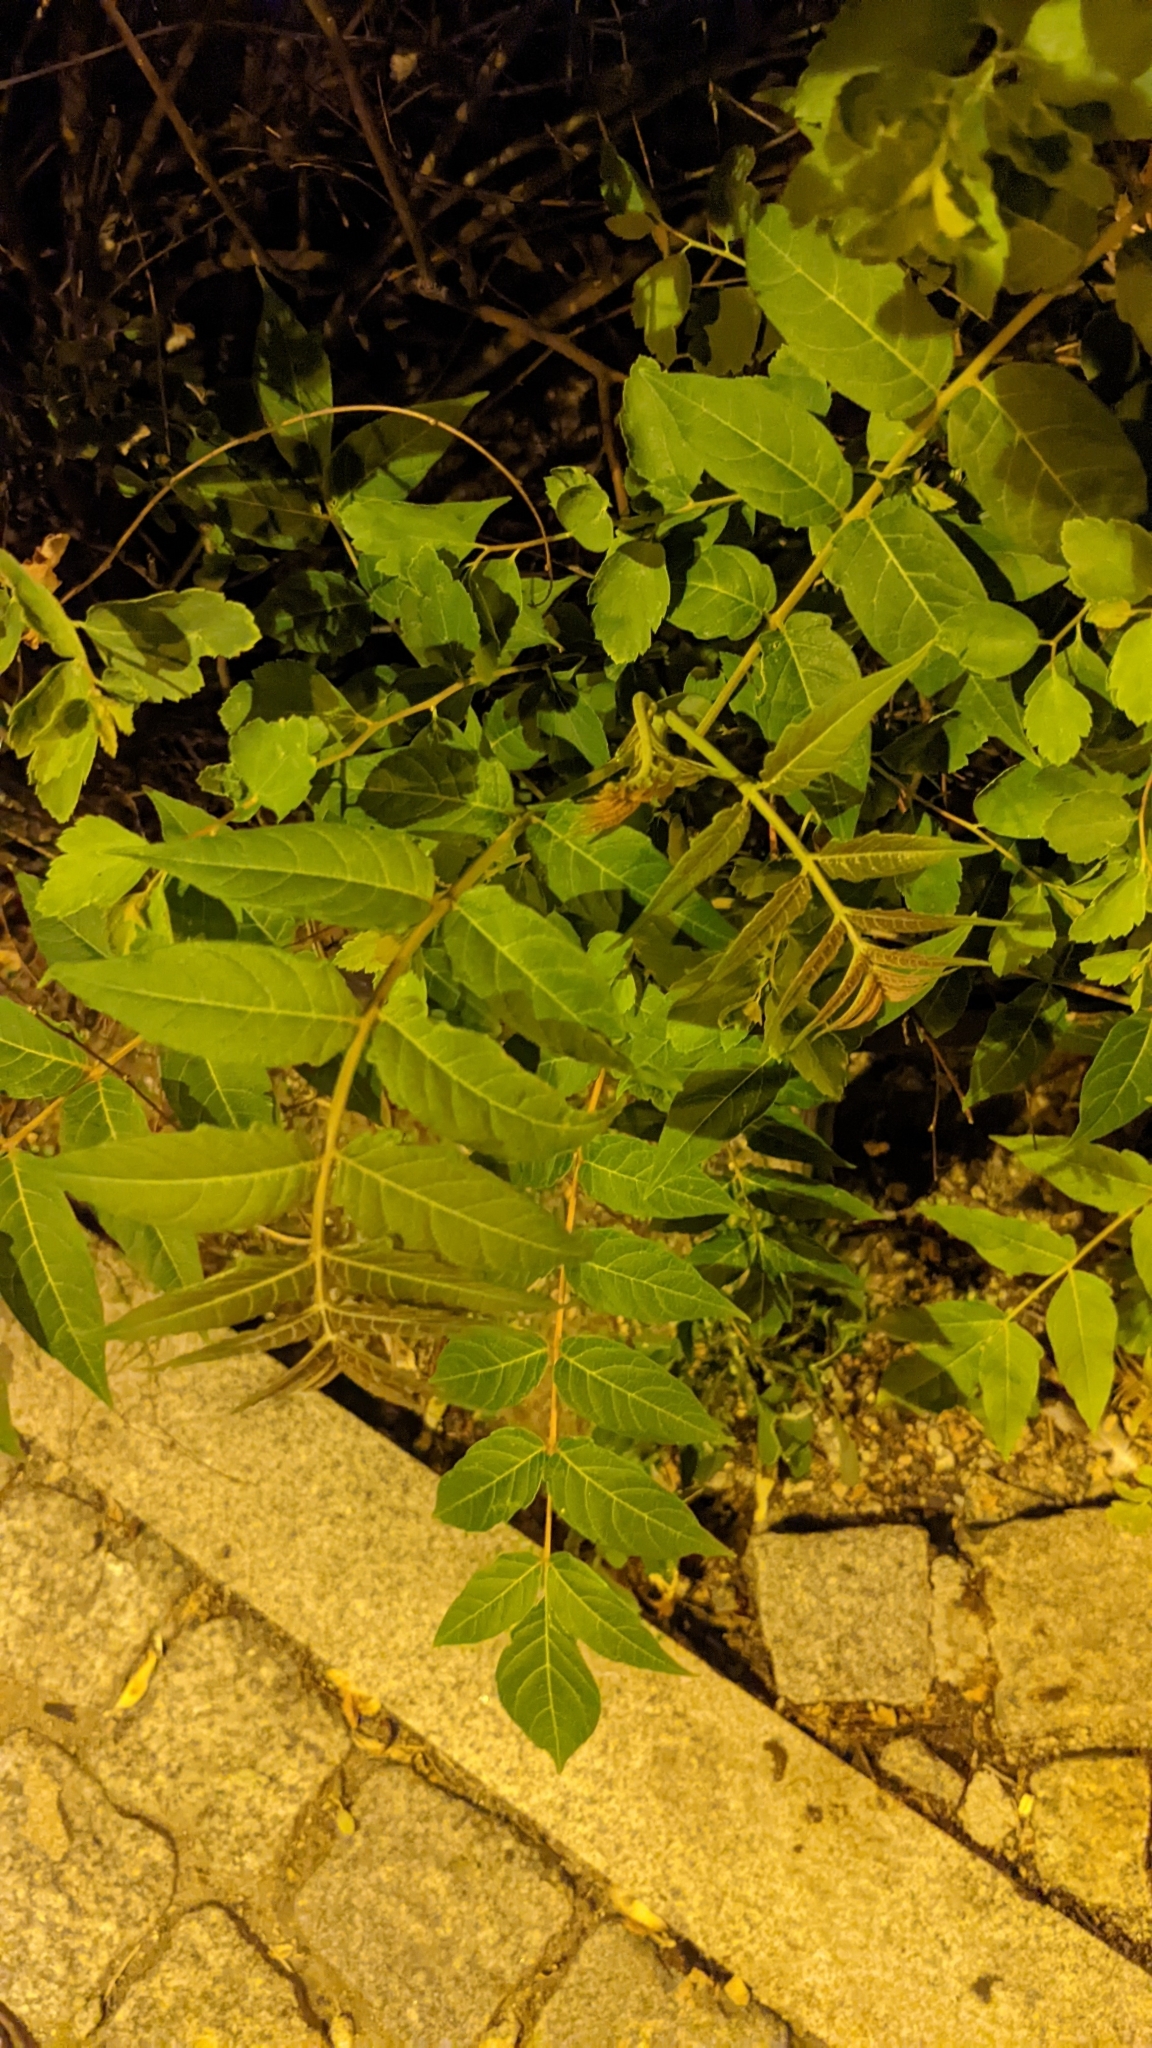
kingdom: Plantae
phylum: Tracheophyta
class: Magnoliopsida
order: Sapindales
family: Simaroubaceae
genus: Ailanthus
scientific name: Ailanthus altissima
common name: Tree-of-heaven
